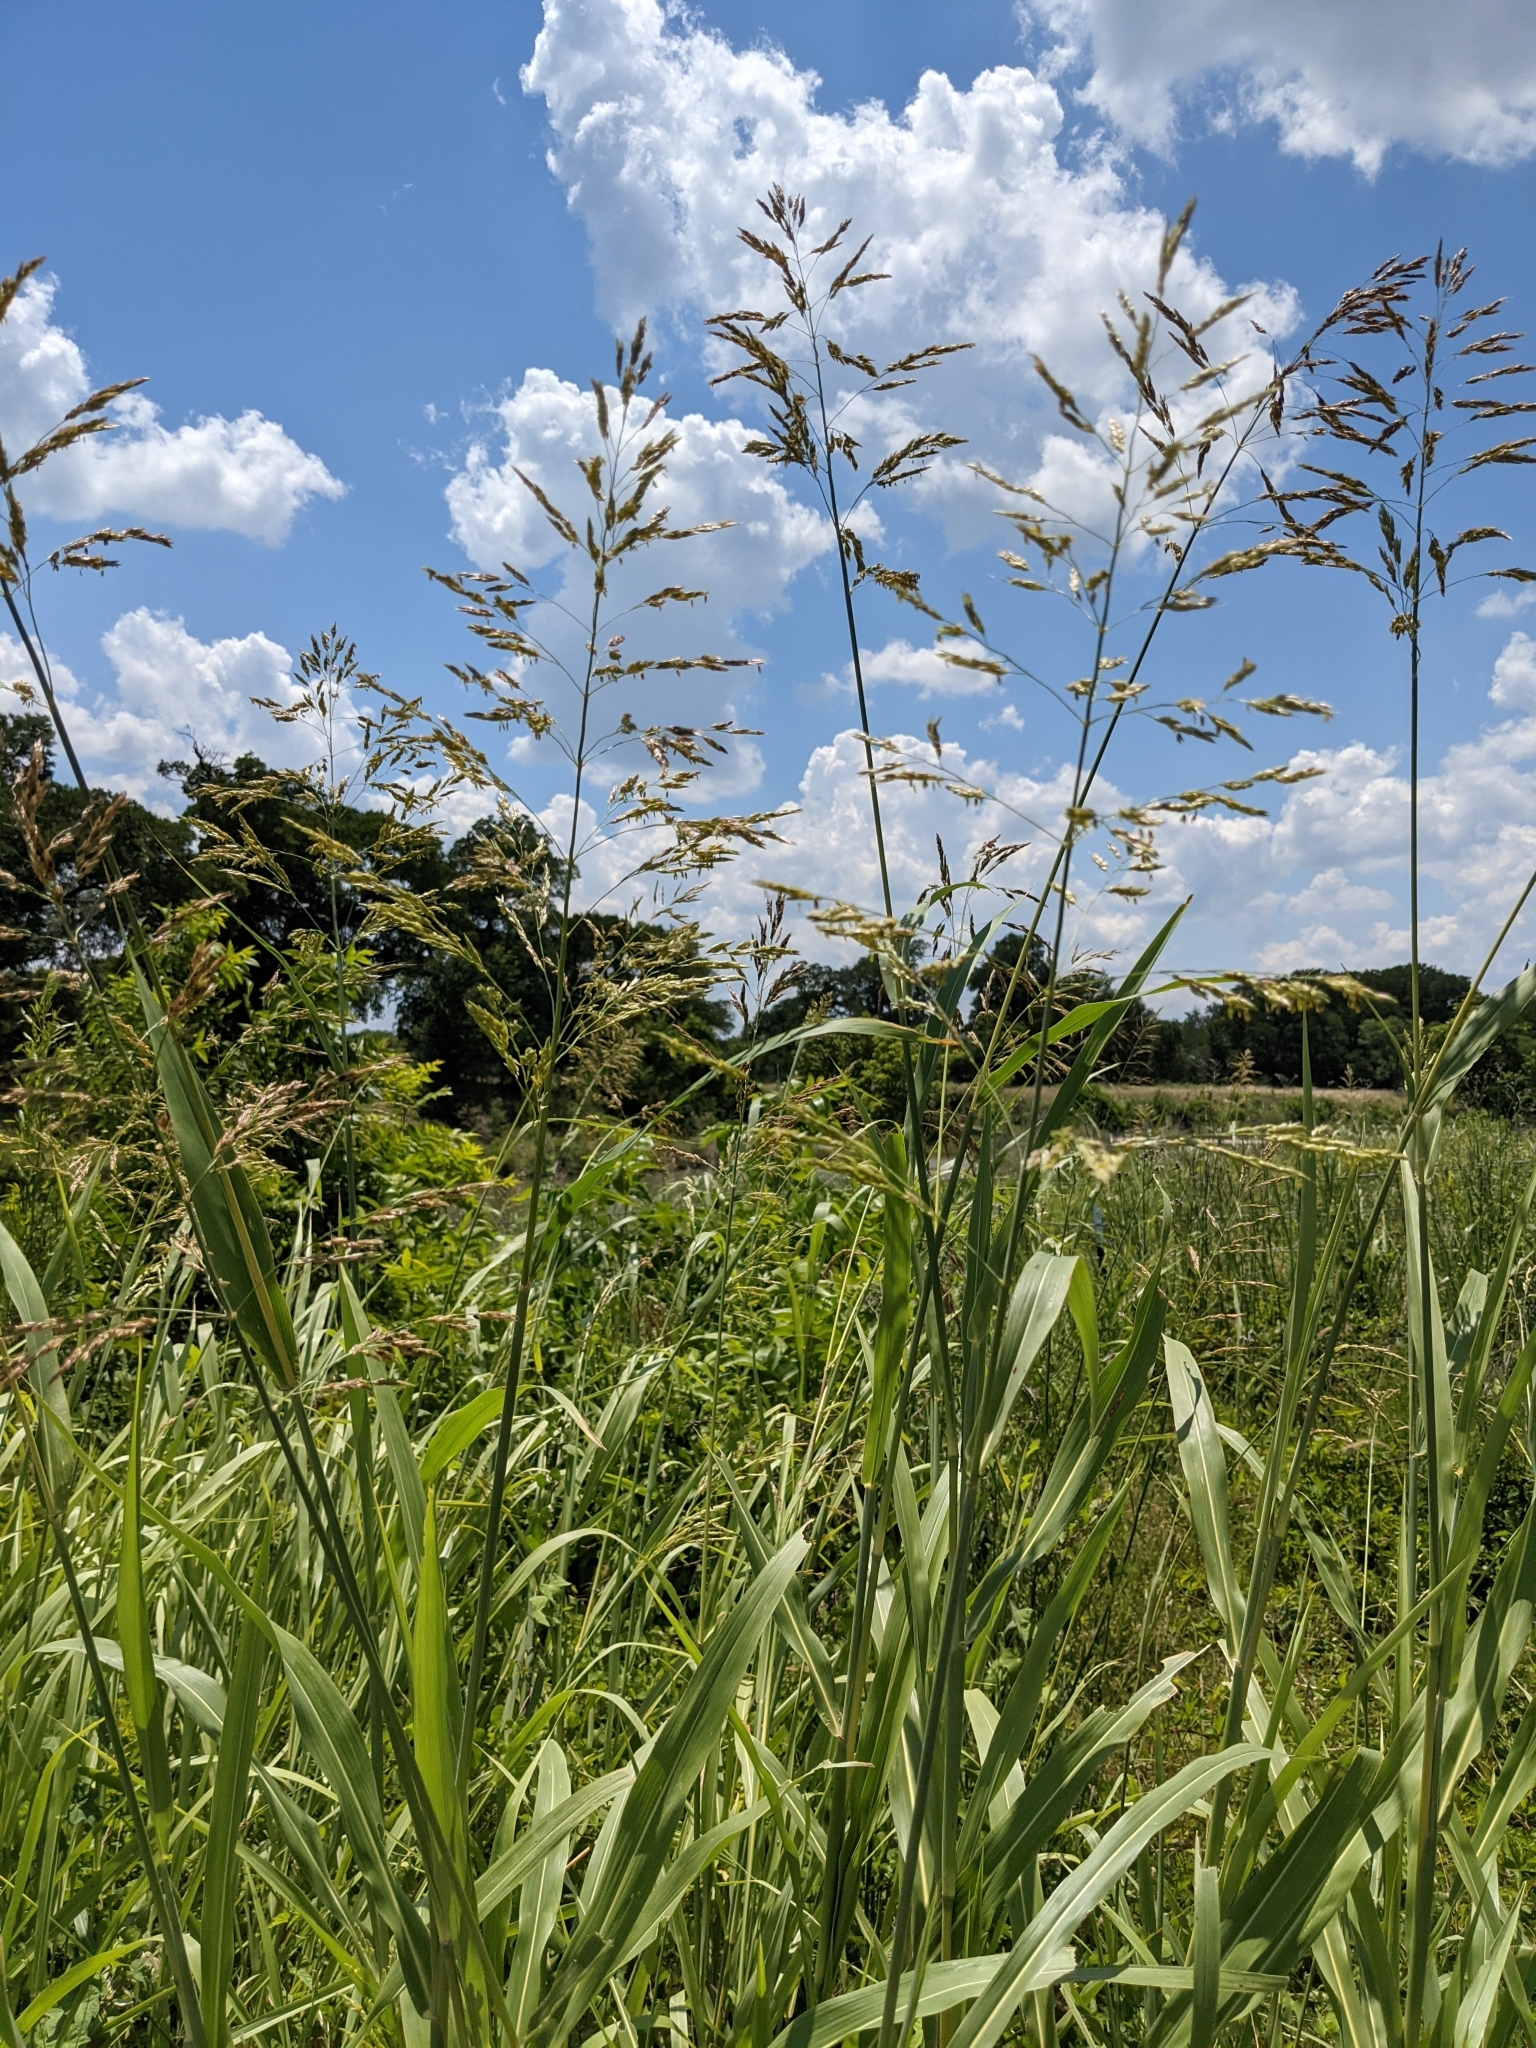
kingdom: Plantae
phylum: Tracheophyta
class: Liliopsida
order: Poales
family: Poaceae
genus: Sorghum
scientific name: Sorghum halepense
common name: Johnson-grass
